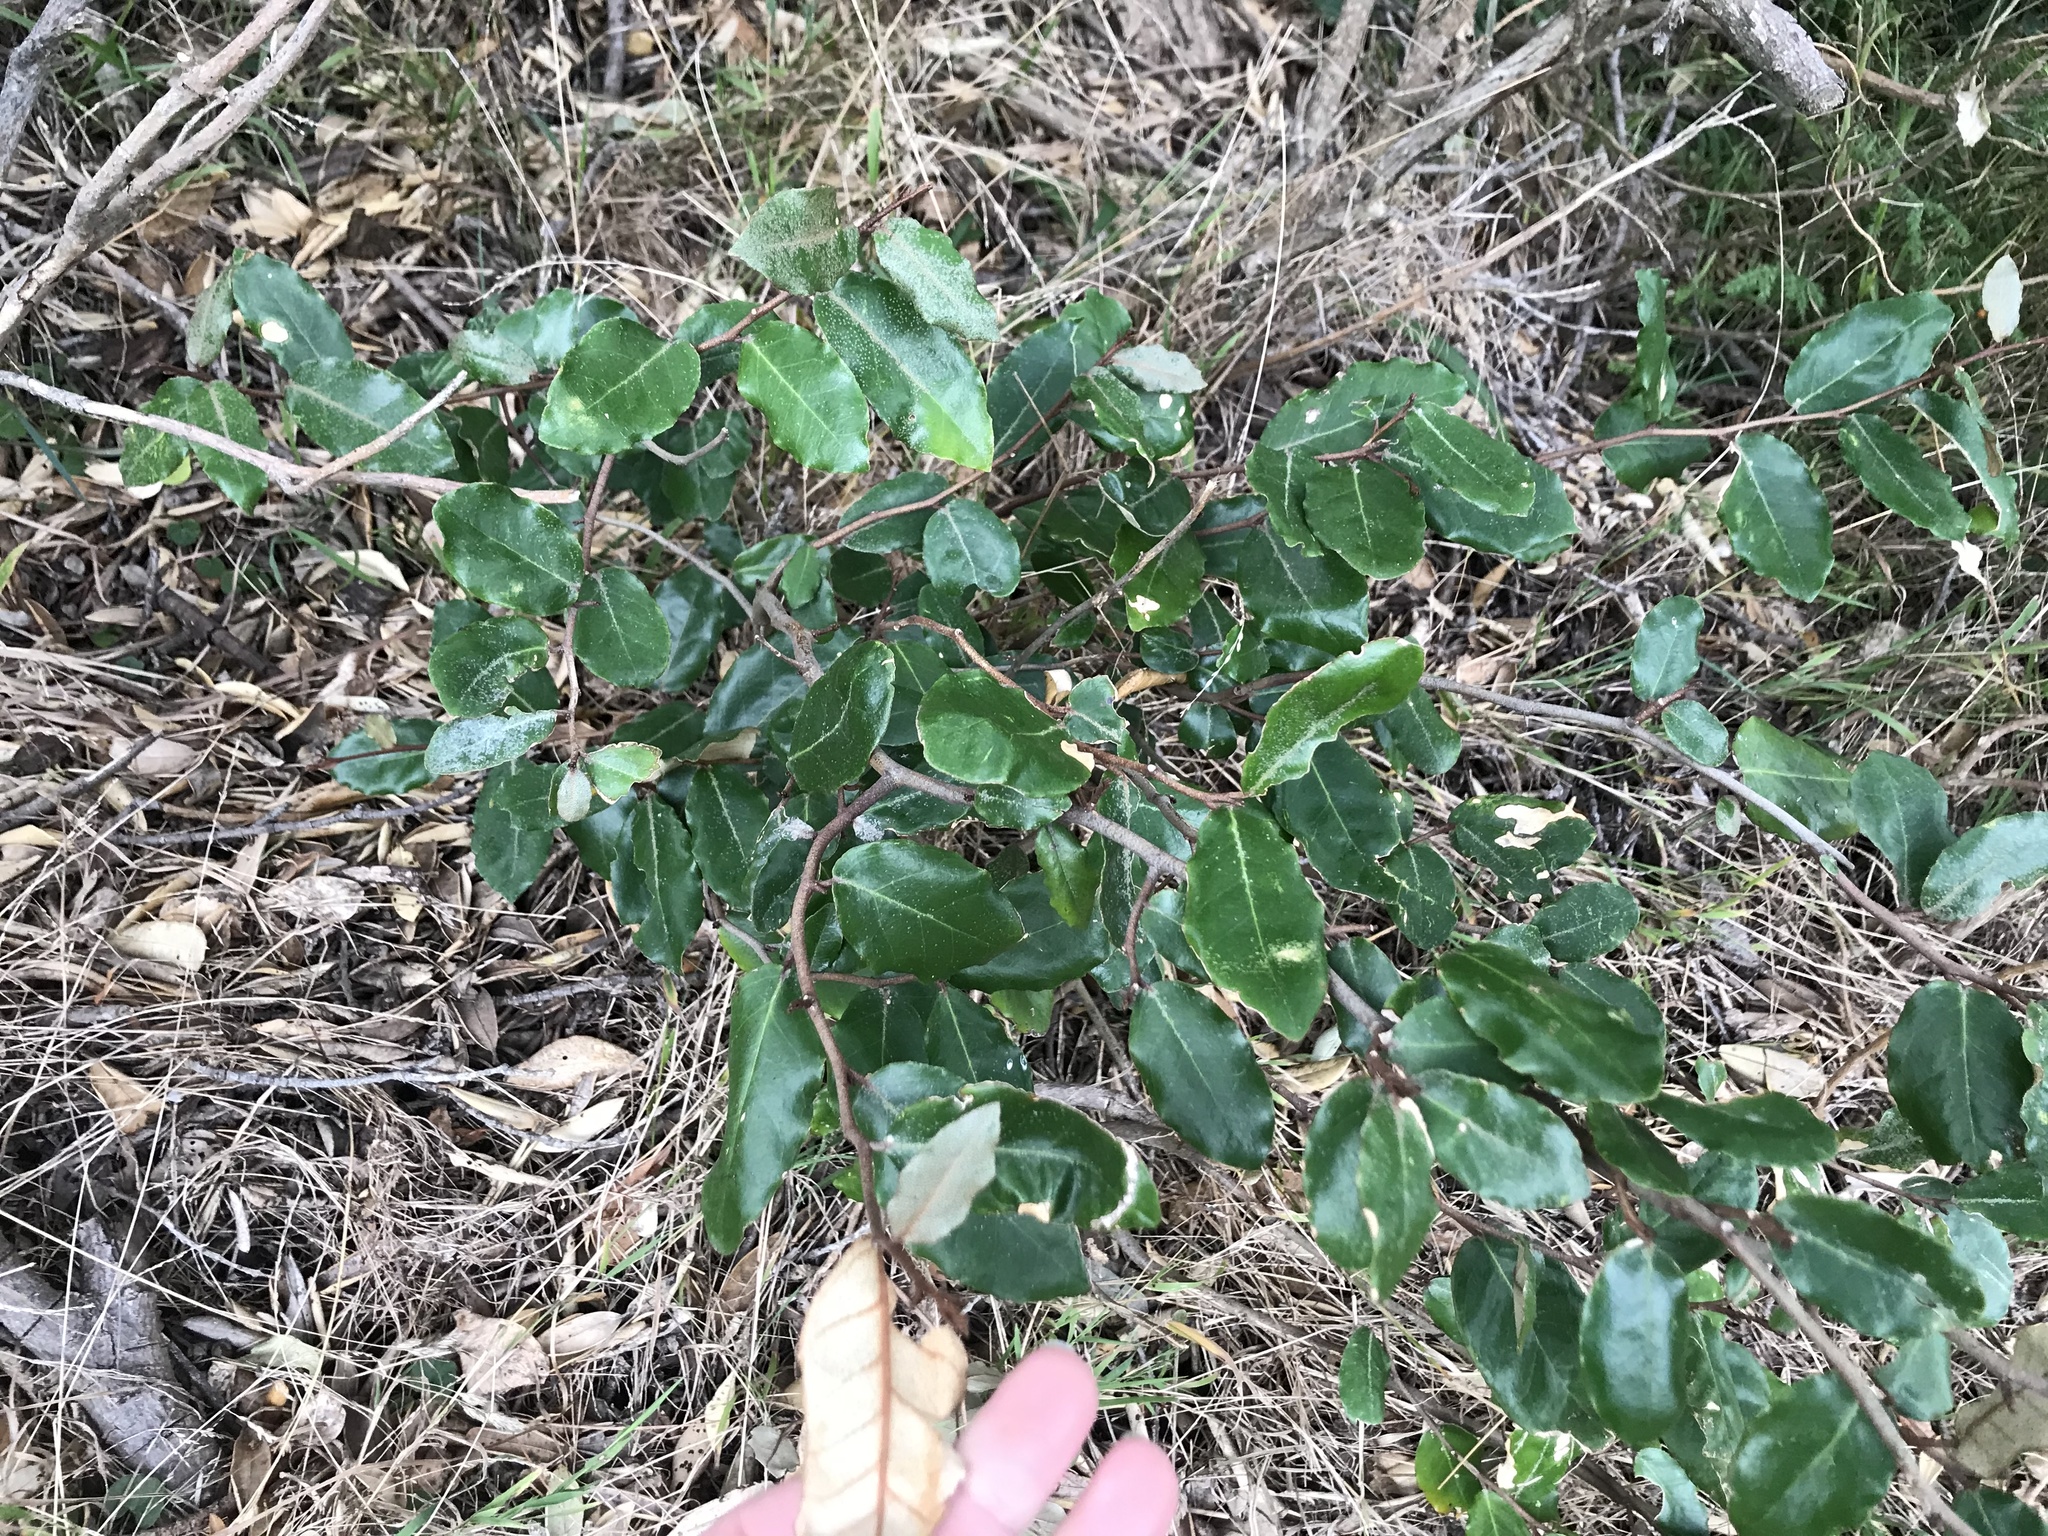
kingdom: Plantae
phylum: Tracheophyta
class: Magnoliopsida
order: Rosales
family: Elaeagnaceae
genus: Elaeagnus
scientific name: Elaeagnus reflexa
